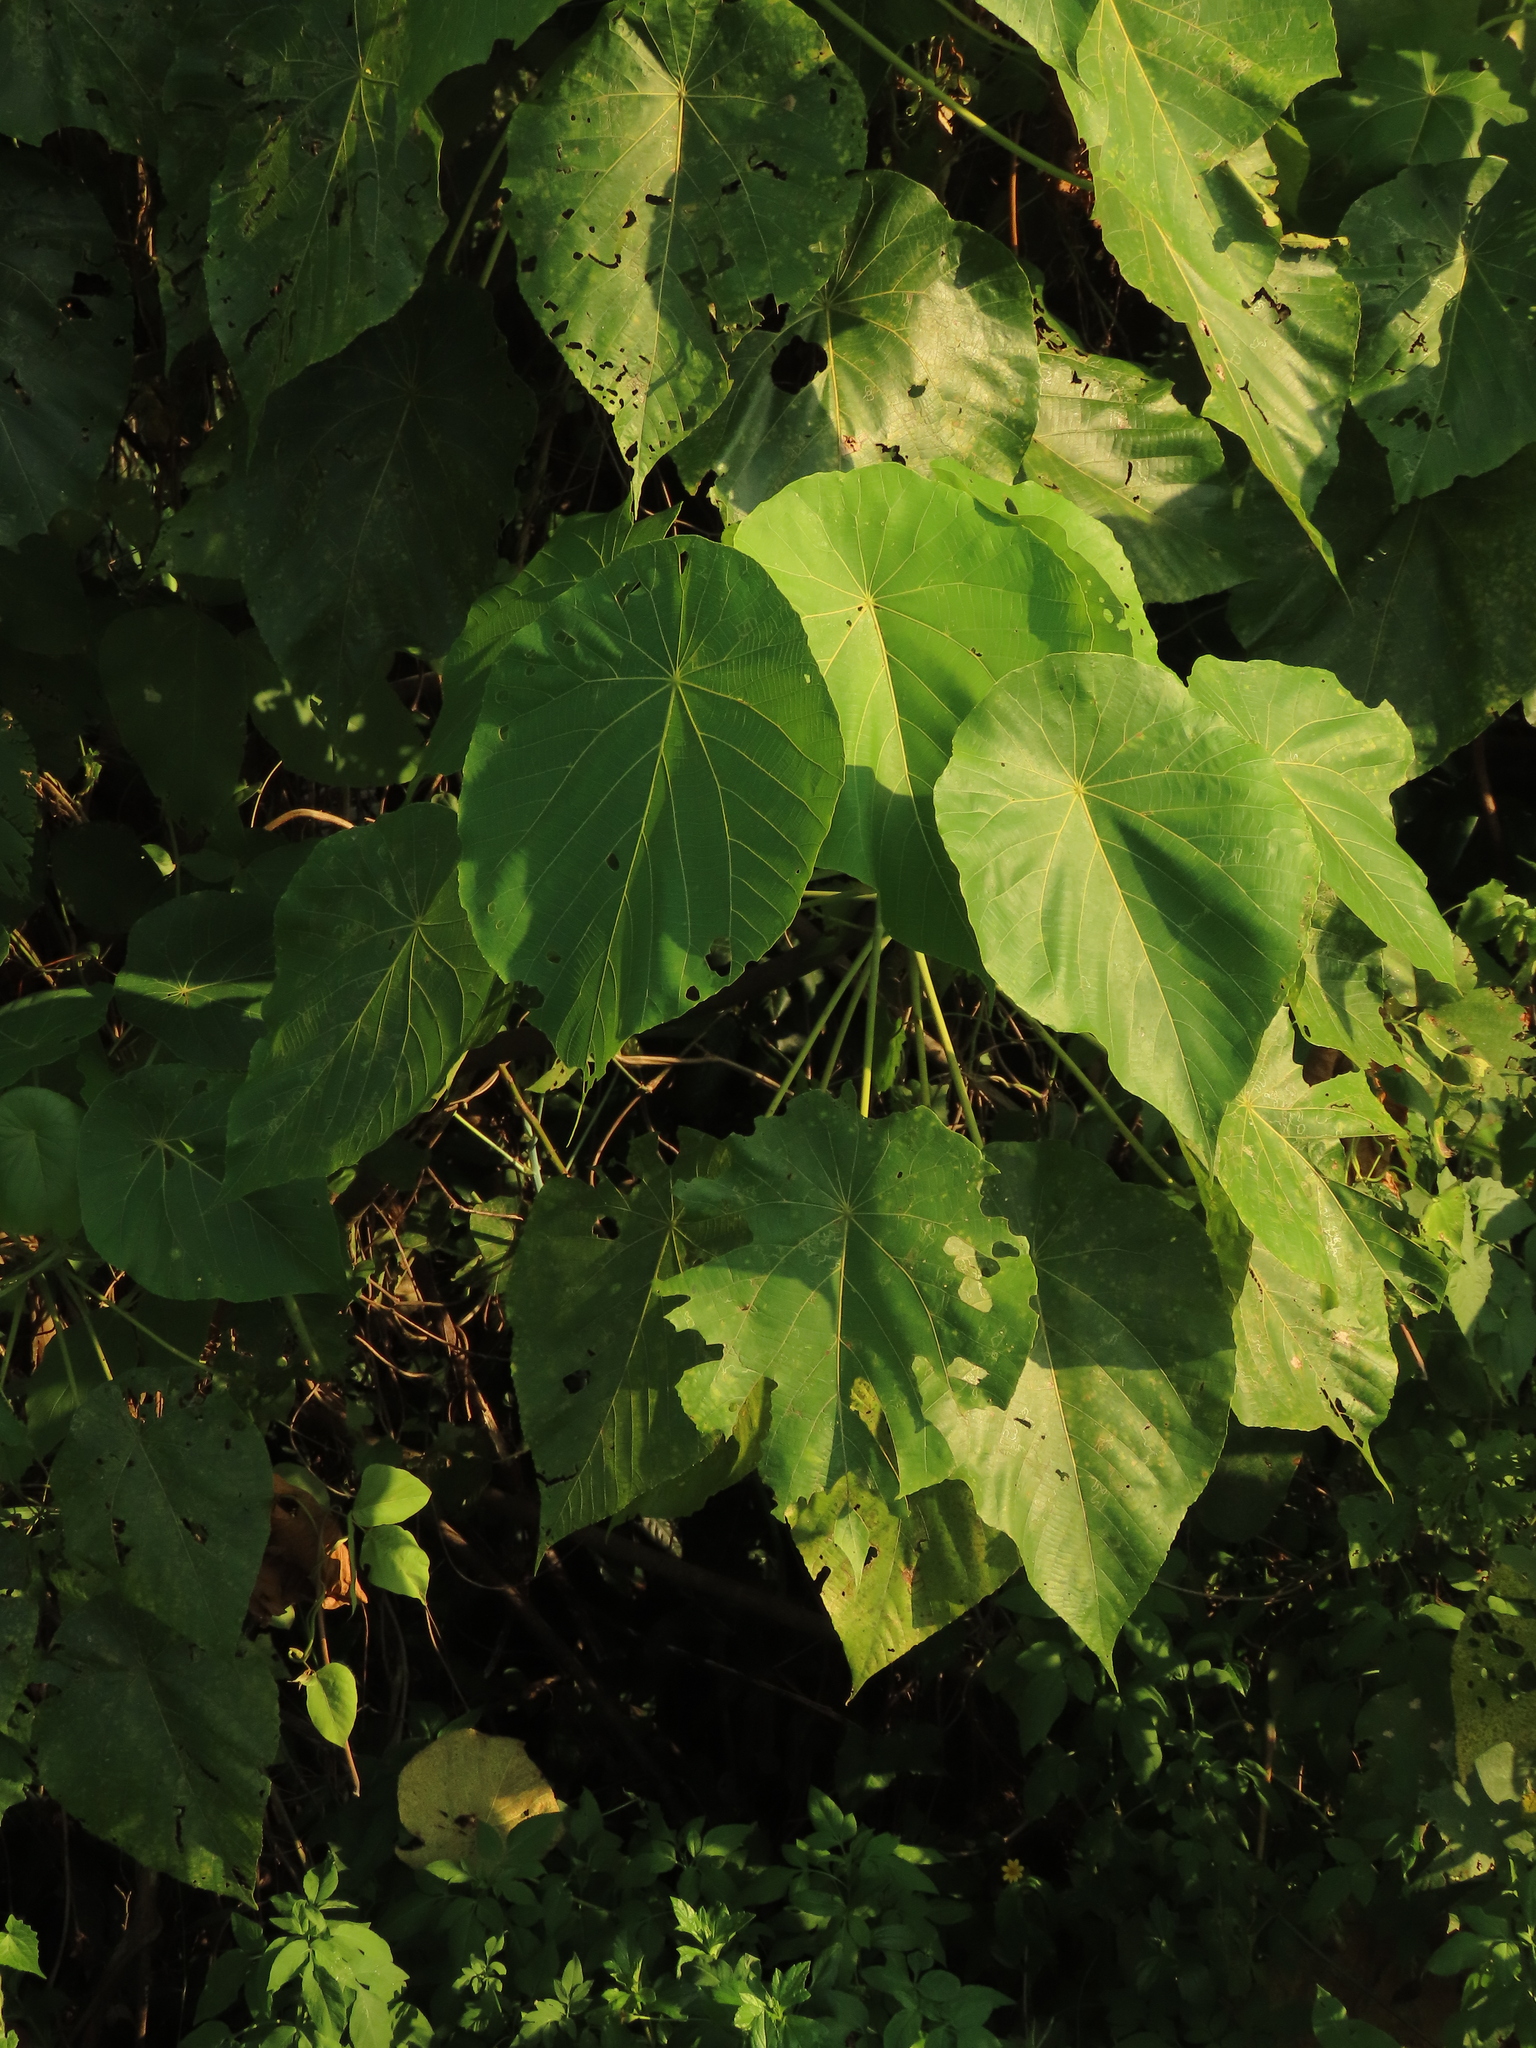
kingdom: Plantae
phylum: Tracheophyta
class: Magnoliopsida
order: Malpighiales
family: Euphorbiaceae
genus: Macaranga
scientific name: Macaranga tanarius
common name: Parasol leaf tree
